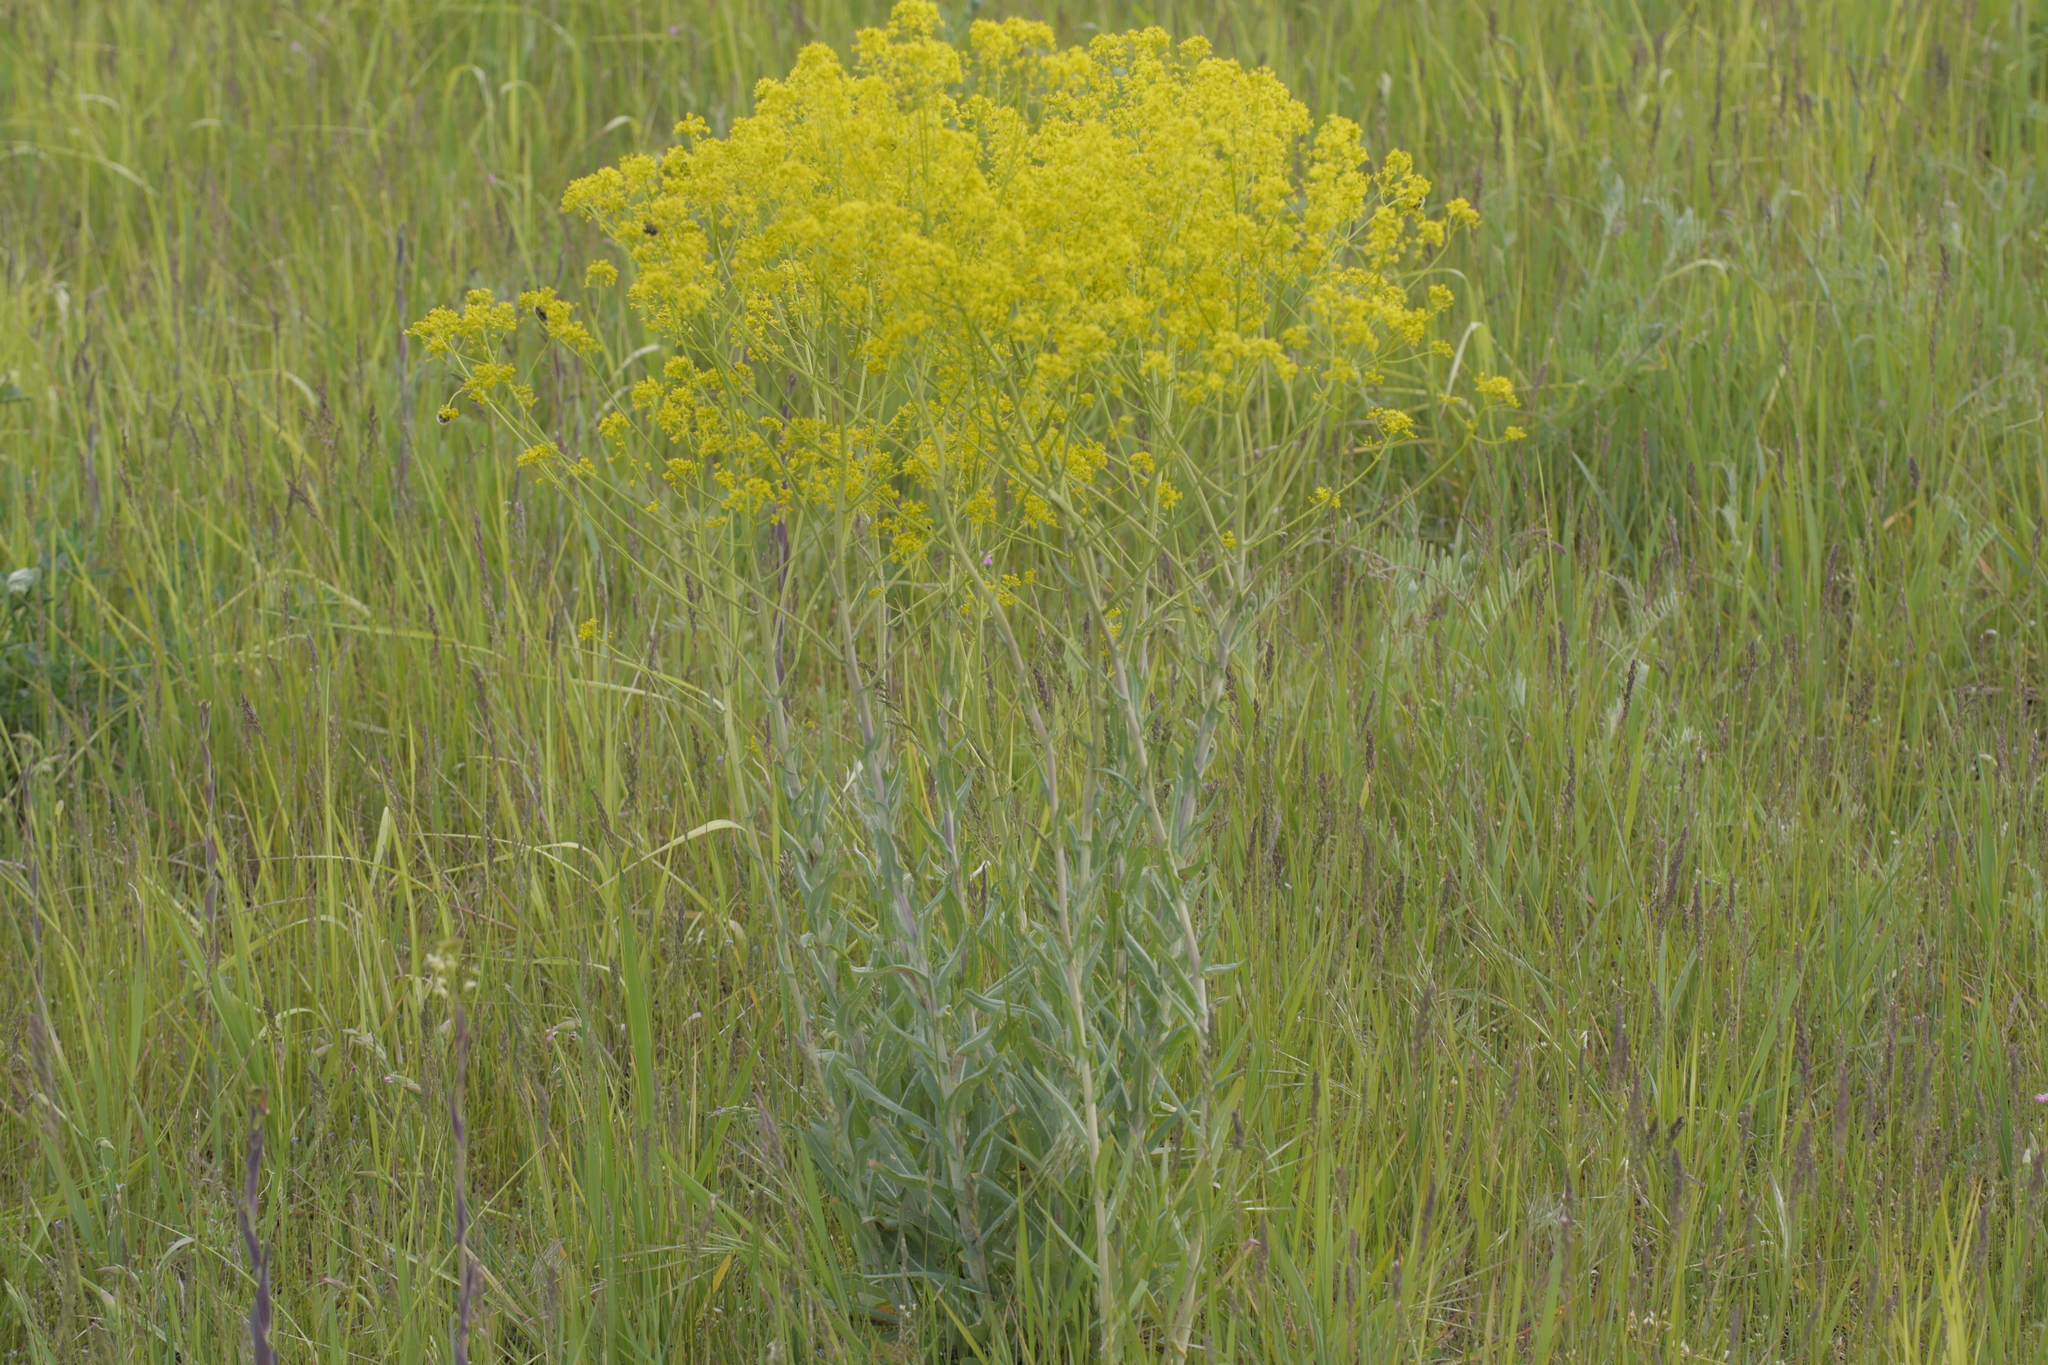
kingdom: Plantae
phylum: Tracheophyta
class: Magnoliopsida
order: Brassicales
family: Brassicaceae
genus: Isatis
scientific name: Isatis tinctoria
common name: Woad
